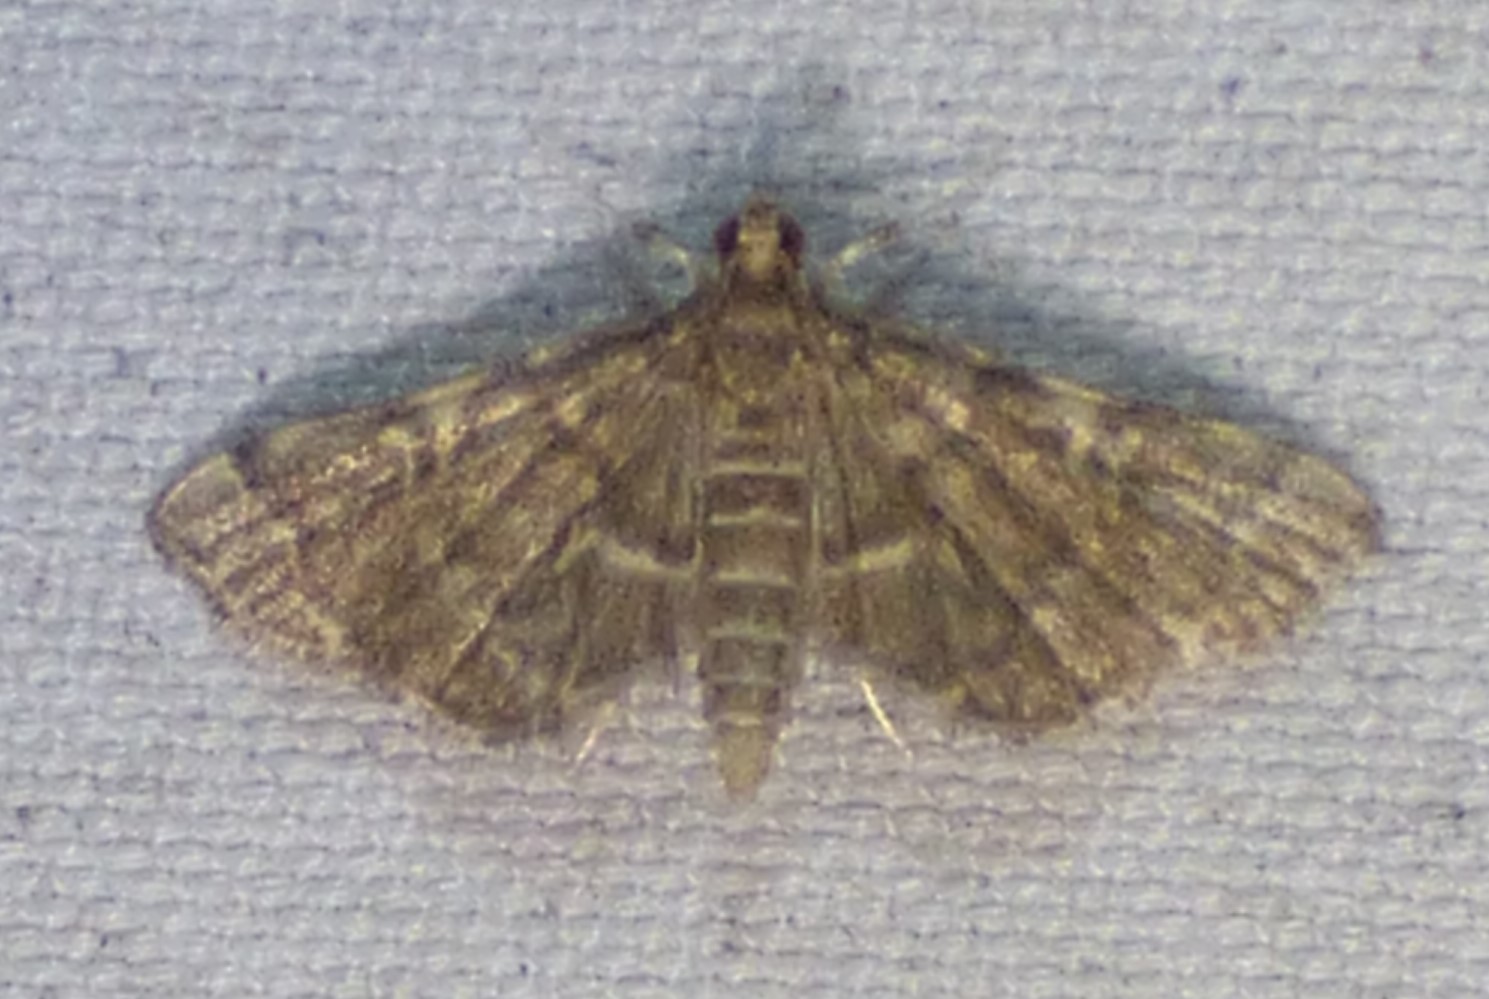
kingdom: Animalia
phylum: Arthropoda
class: Insecta
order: Lepidoptera
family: Crambidae
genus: Anageshna
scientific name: Anageshna primordialis
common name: Yellow-spotted webworm moth
